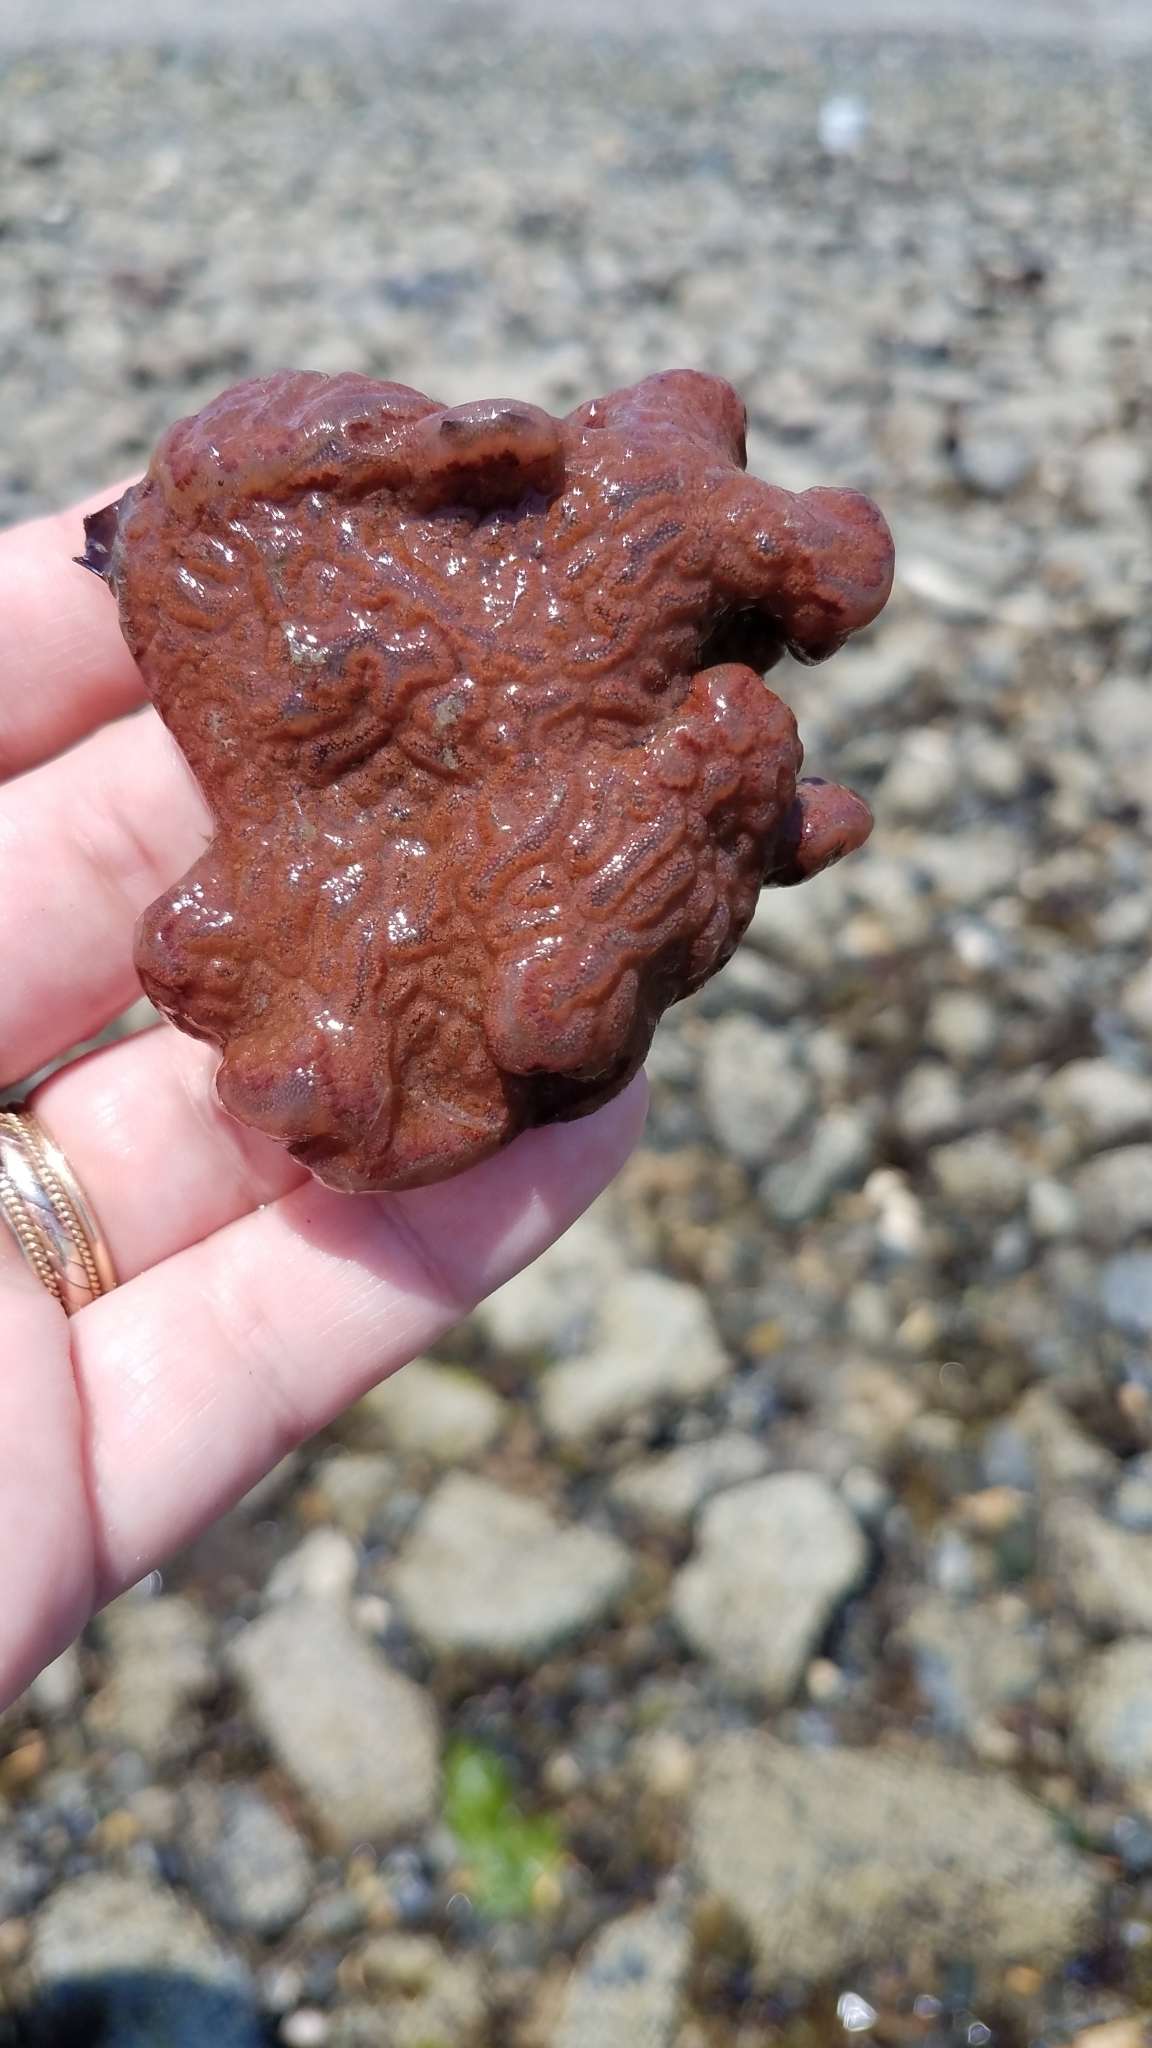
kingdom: Animalia
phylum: Chordata
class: Ascidiacea
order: Stolidobranchia
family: Styelidae
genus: Botrylloides
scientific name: Botrylloides violaceus
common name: Colonial sea squirt
